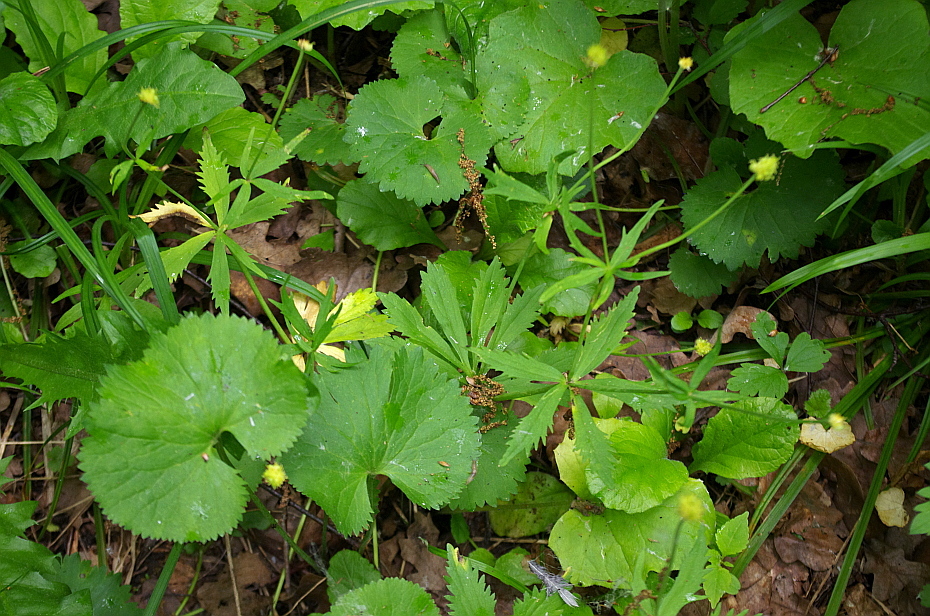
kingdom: Plantae
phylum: Tracheophyta
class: Magnoliopsida
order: Ranunculales
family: Ranunculaceae
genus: Ranunculus
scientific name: Ranunculus cassubicus
